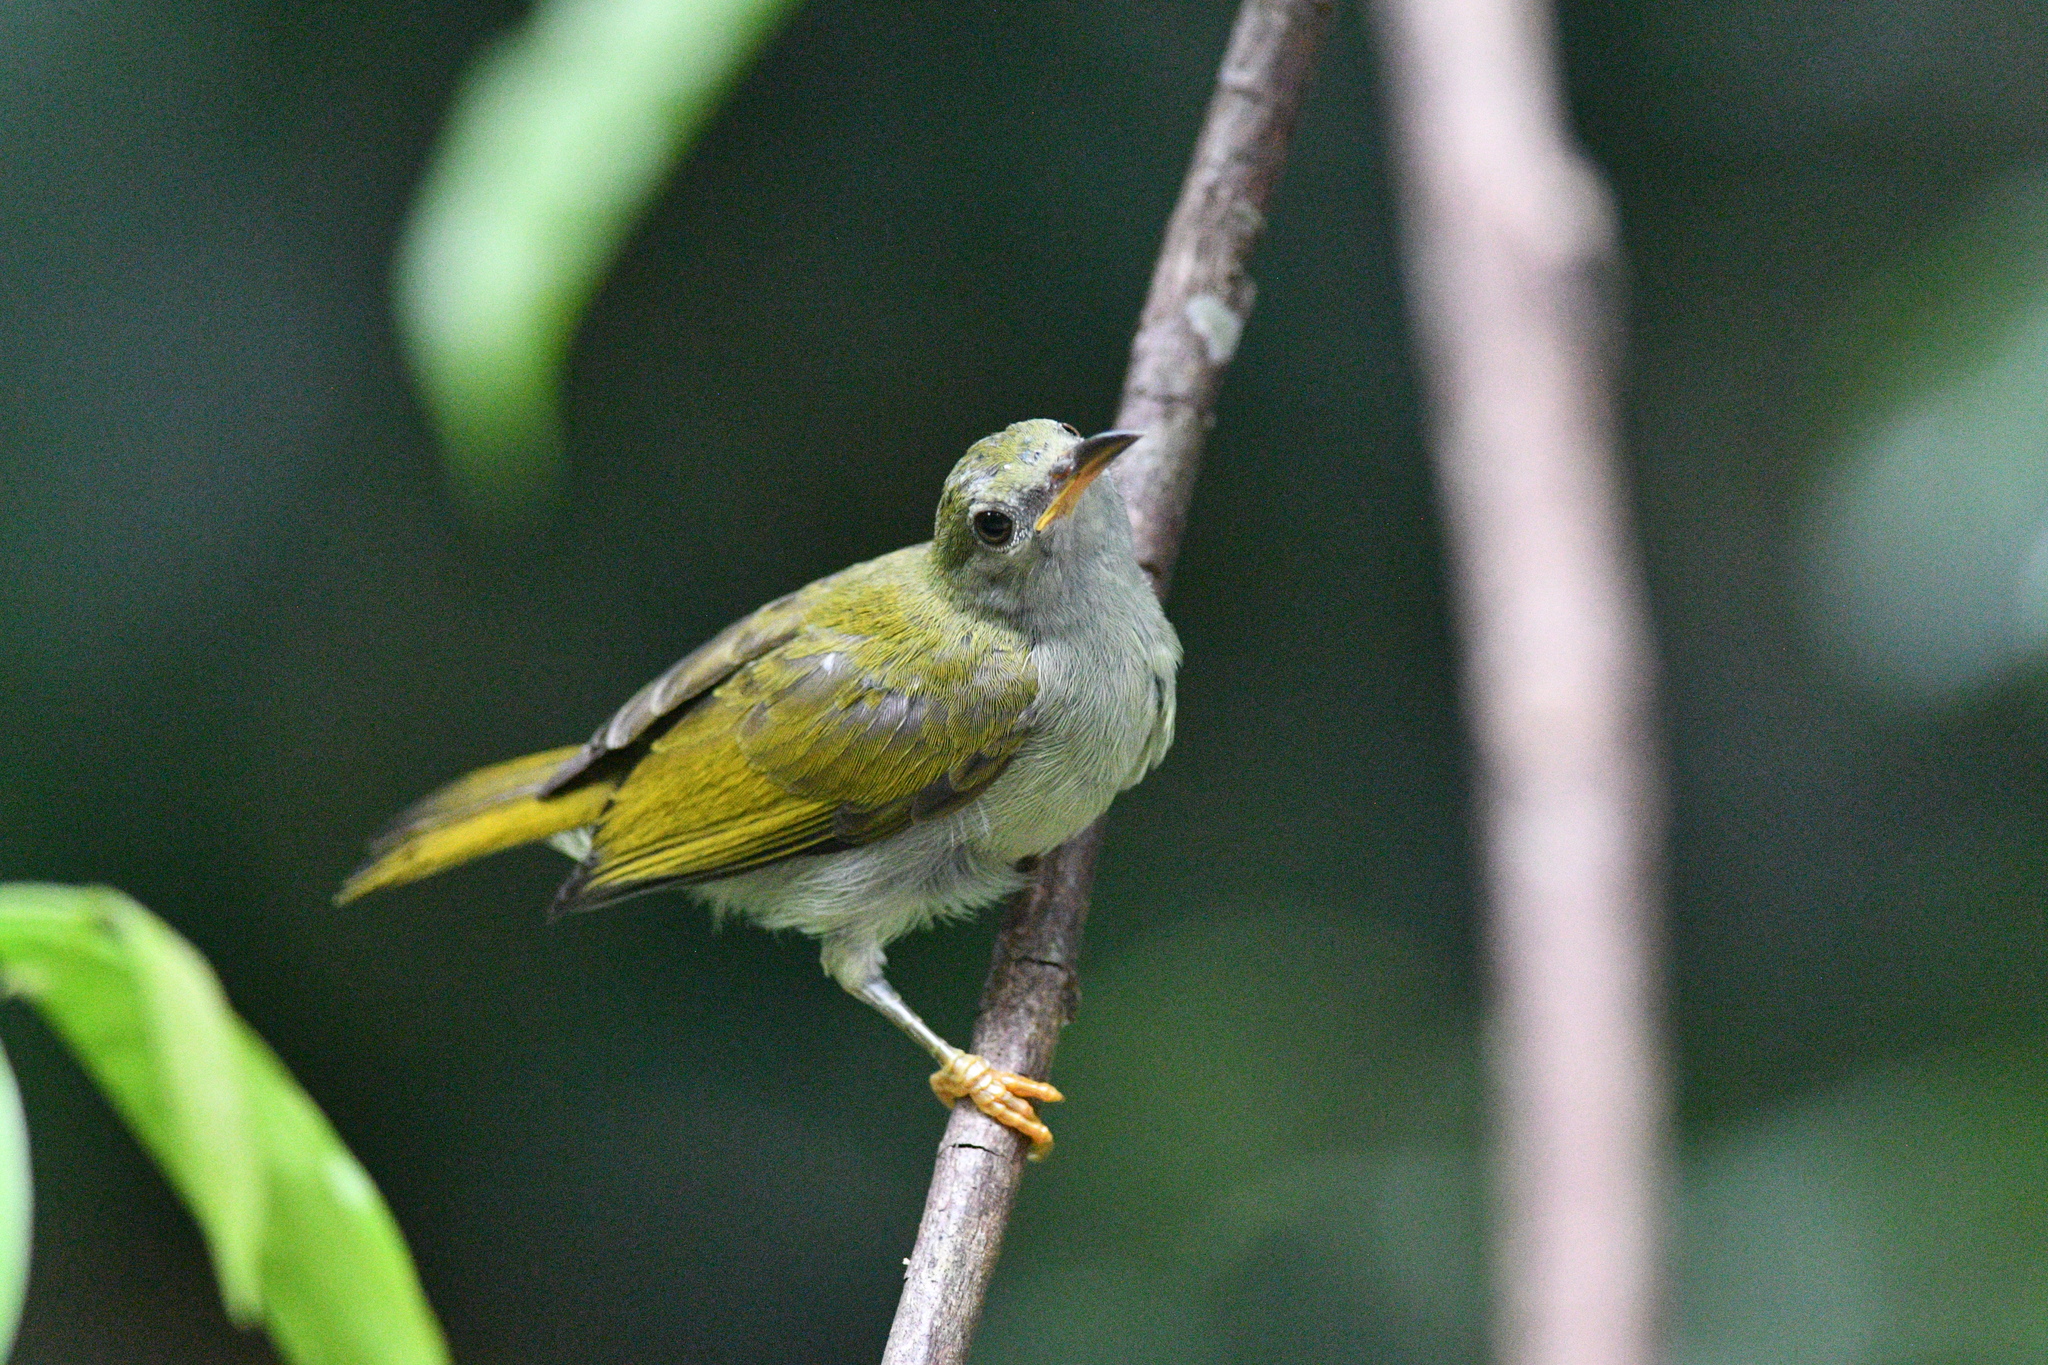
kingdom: Animalia
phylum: Chordata
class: Aves
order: Passeriformes
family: Nectariniidae
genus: Anthreptes
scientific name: Anthreptes simplex
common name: Plain sunbird
